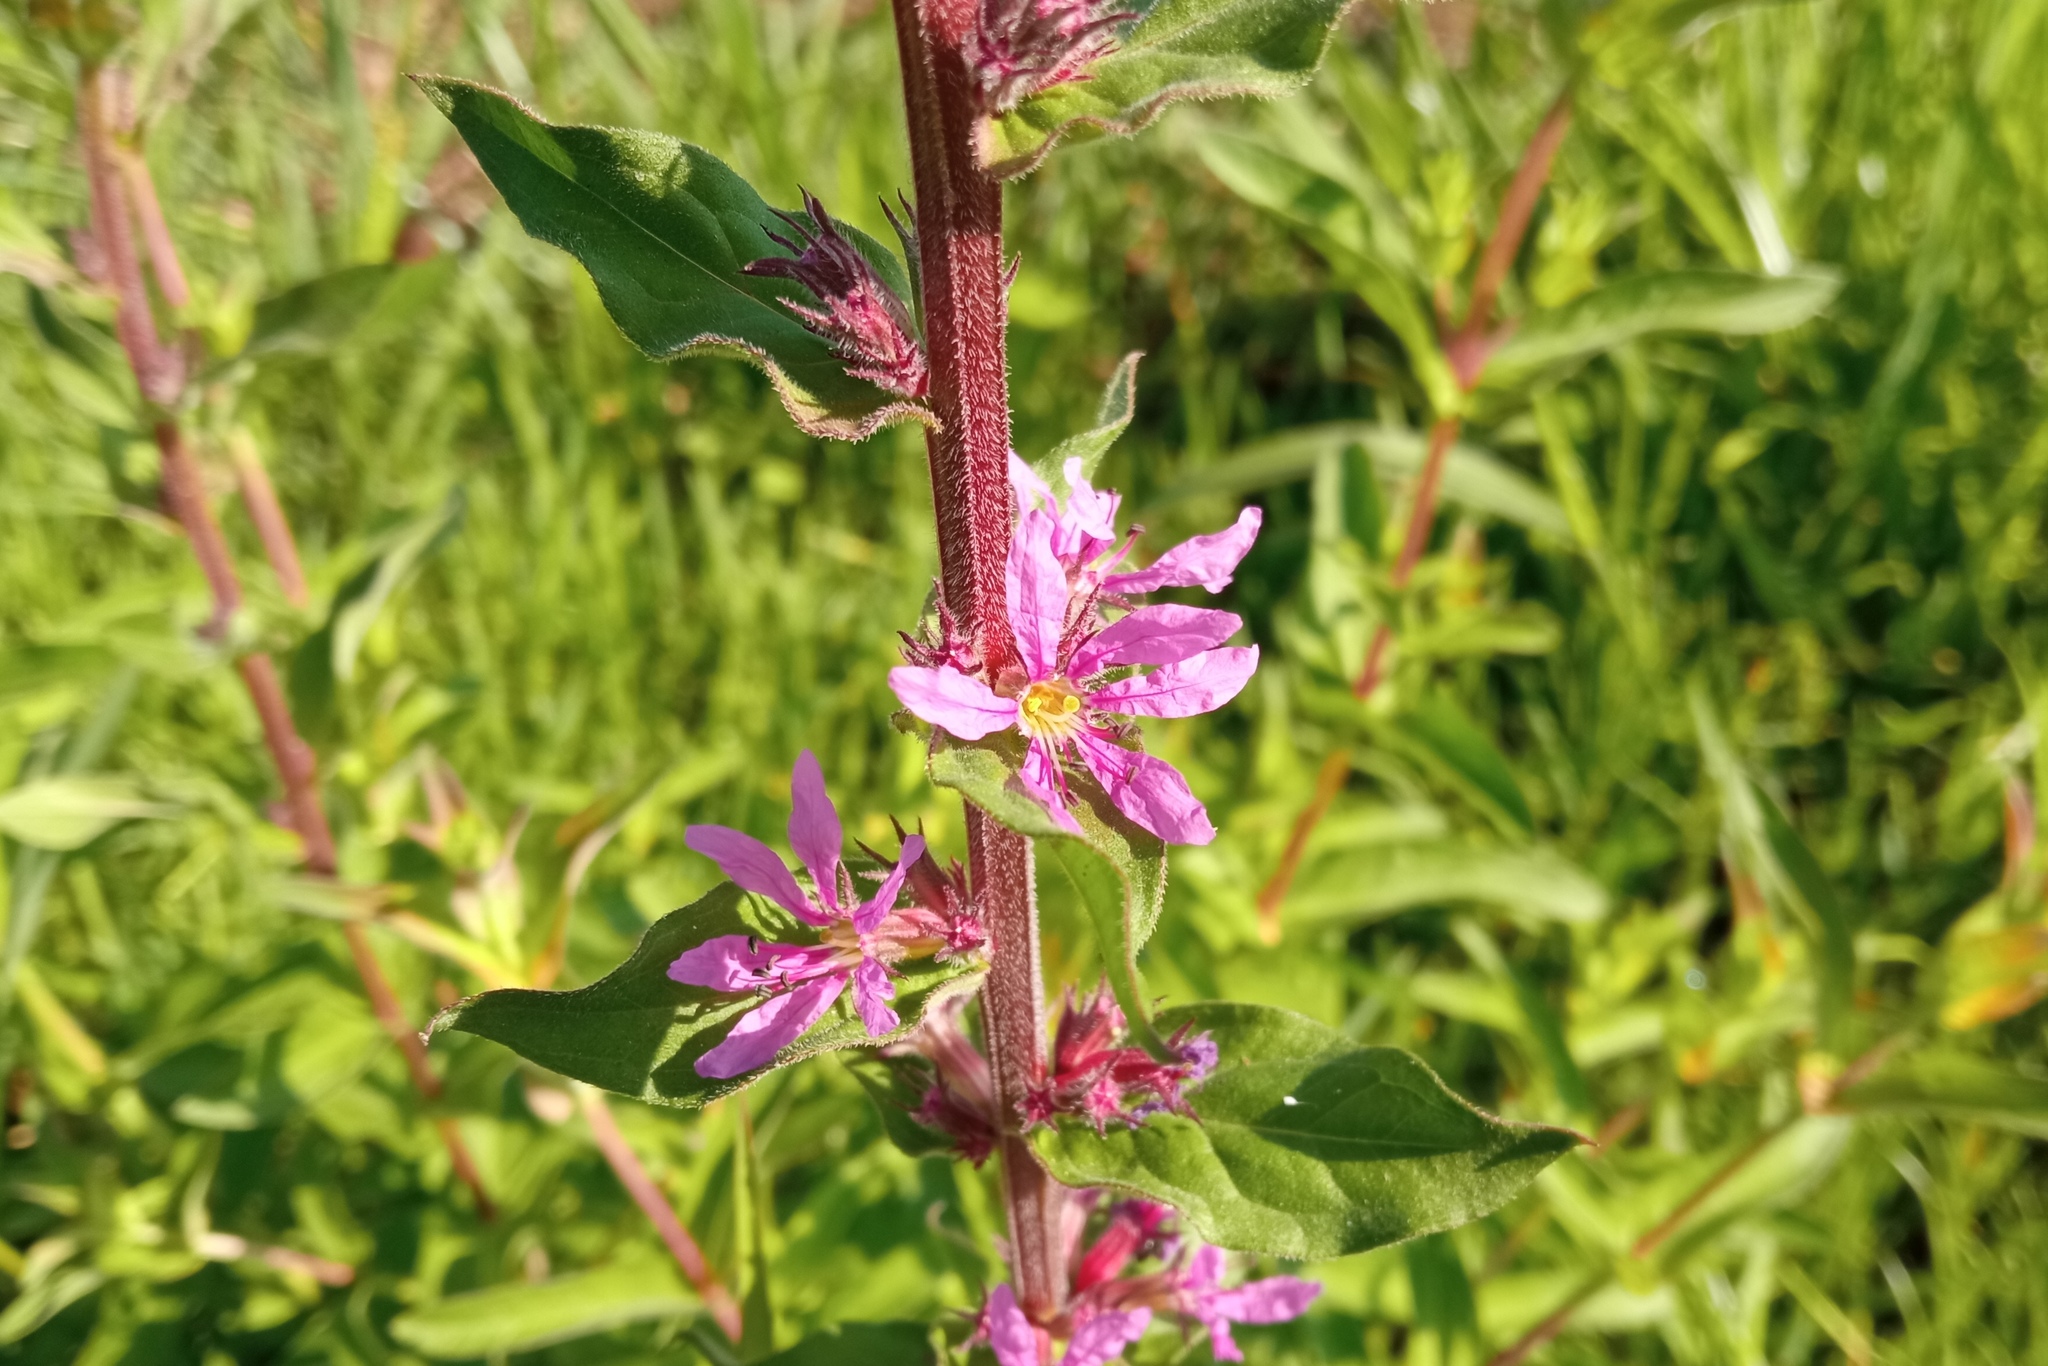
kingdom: Plantae
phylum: Tracheophyta
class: Magnoliopsida
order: Myrtales
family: Lythraceae
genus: Lythrum
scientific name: Lythrum salicaria
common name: Purple loosestrife
